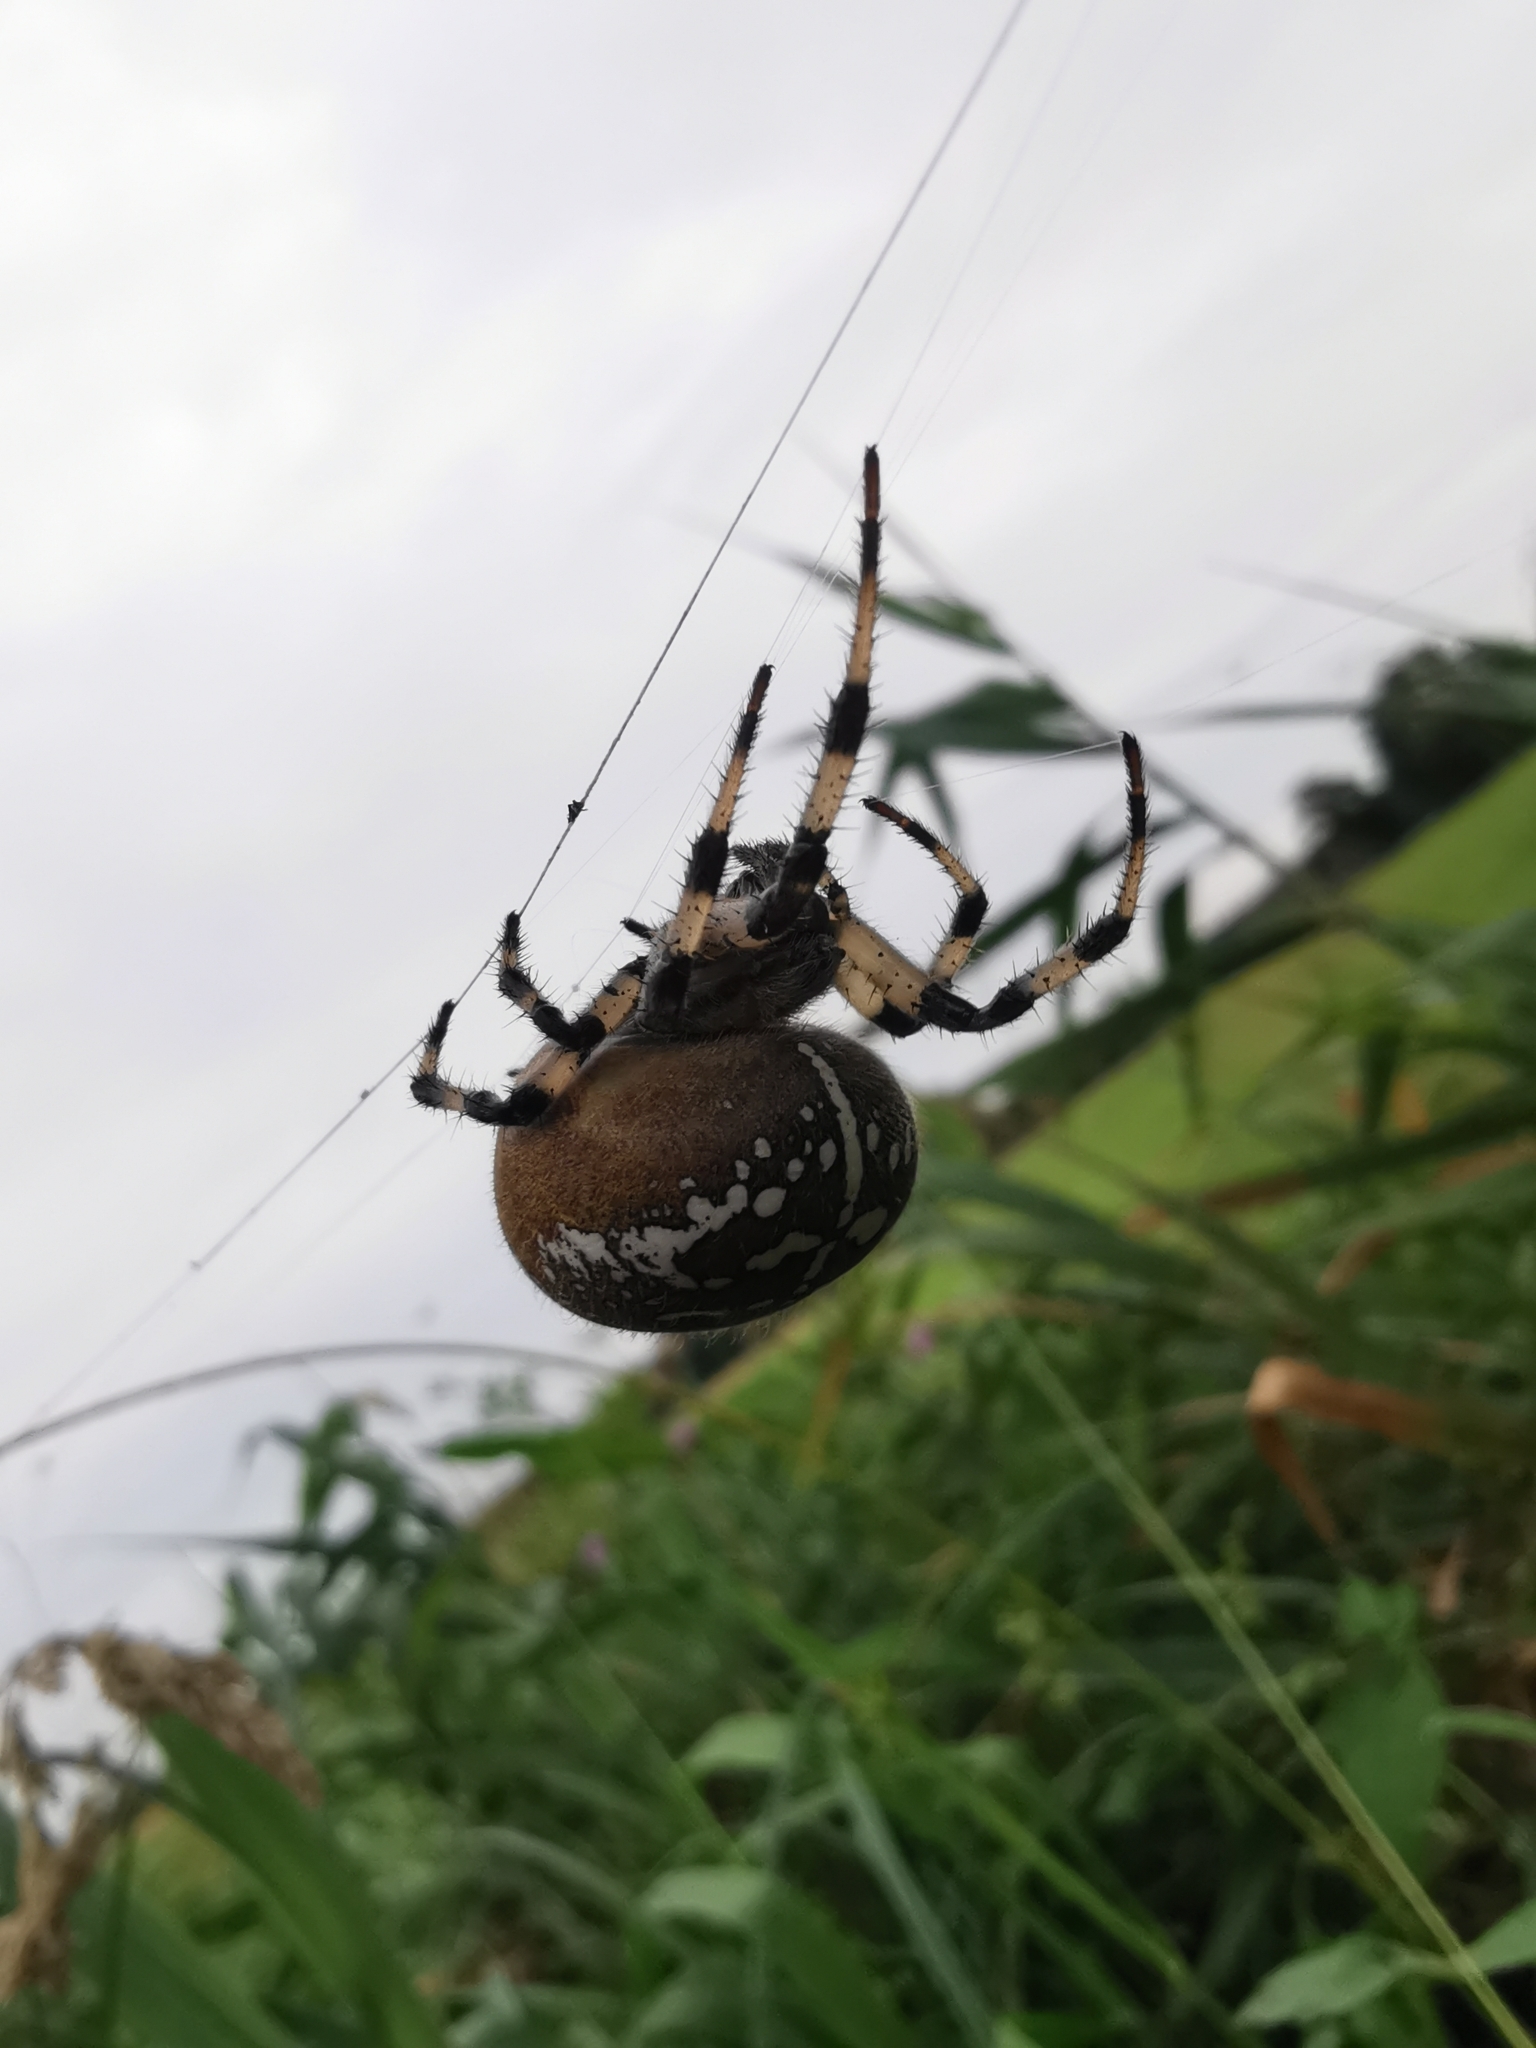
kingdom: Animalia
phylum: Arthropoda
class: Arachnida
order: Araneae
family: Araneidae
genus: Araneus
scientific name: Araneus quadratus
